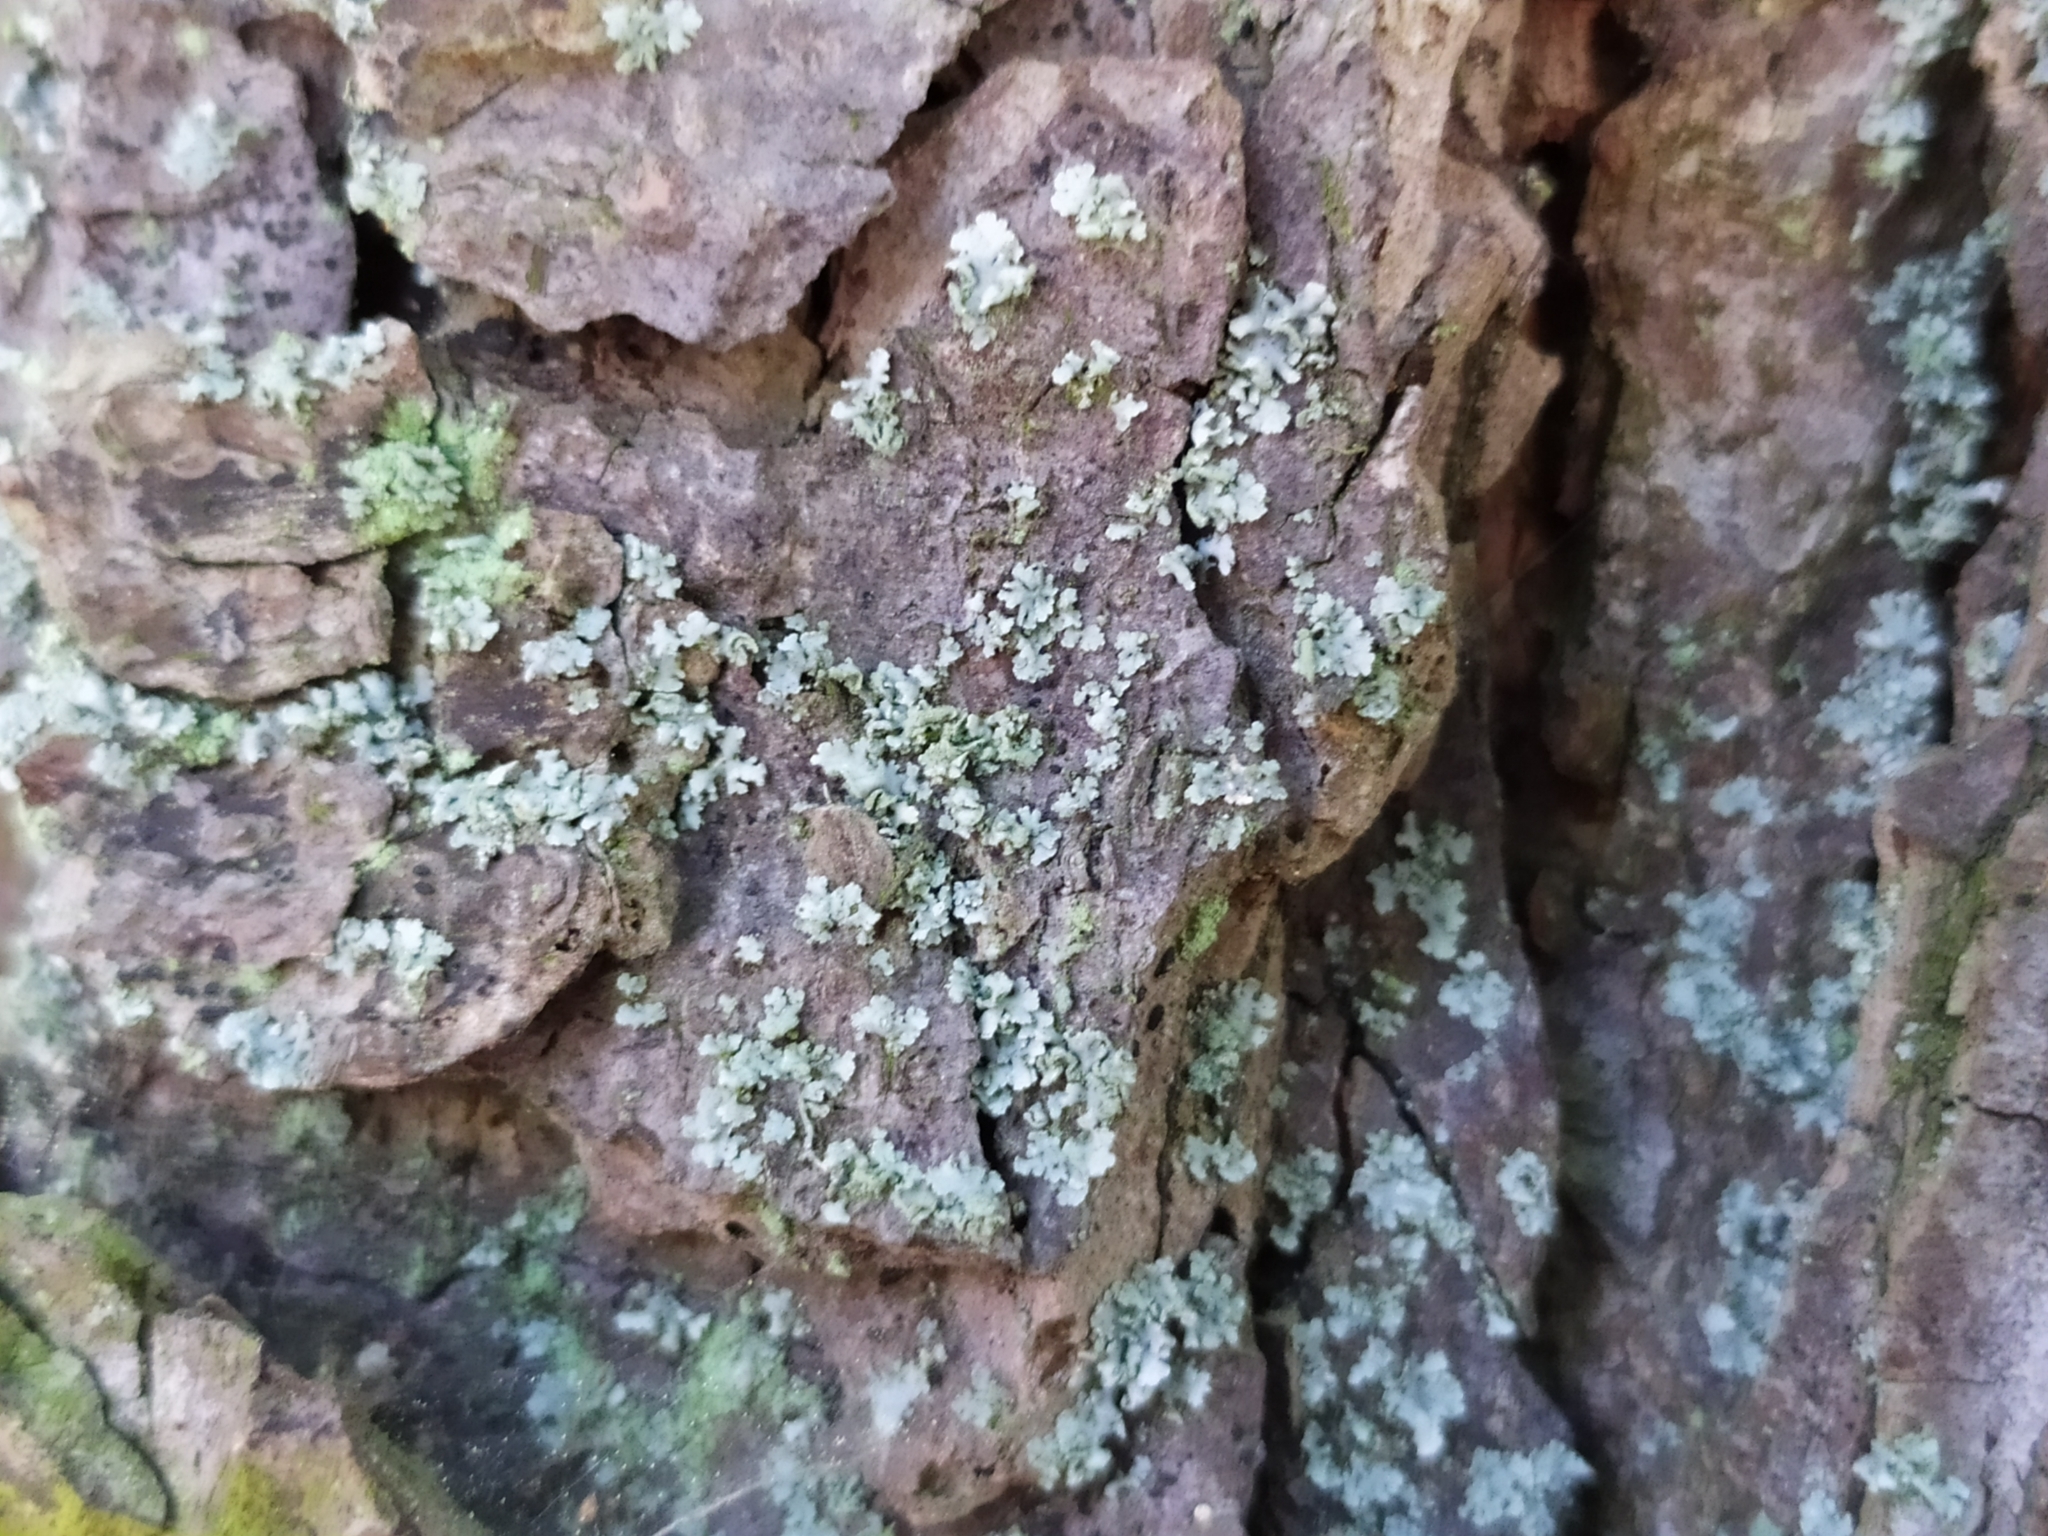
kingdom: Fungi
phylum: Ascomycota
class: Lecanoromycetes
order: Caliciales
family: Physciaceae
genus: Physcia
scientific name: Physcia
